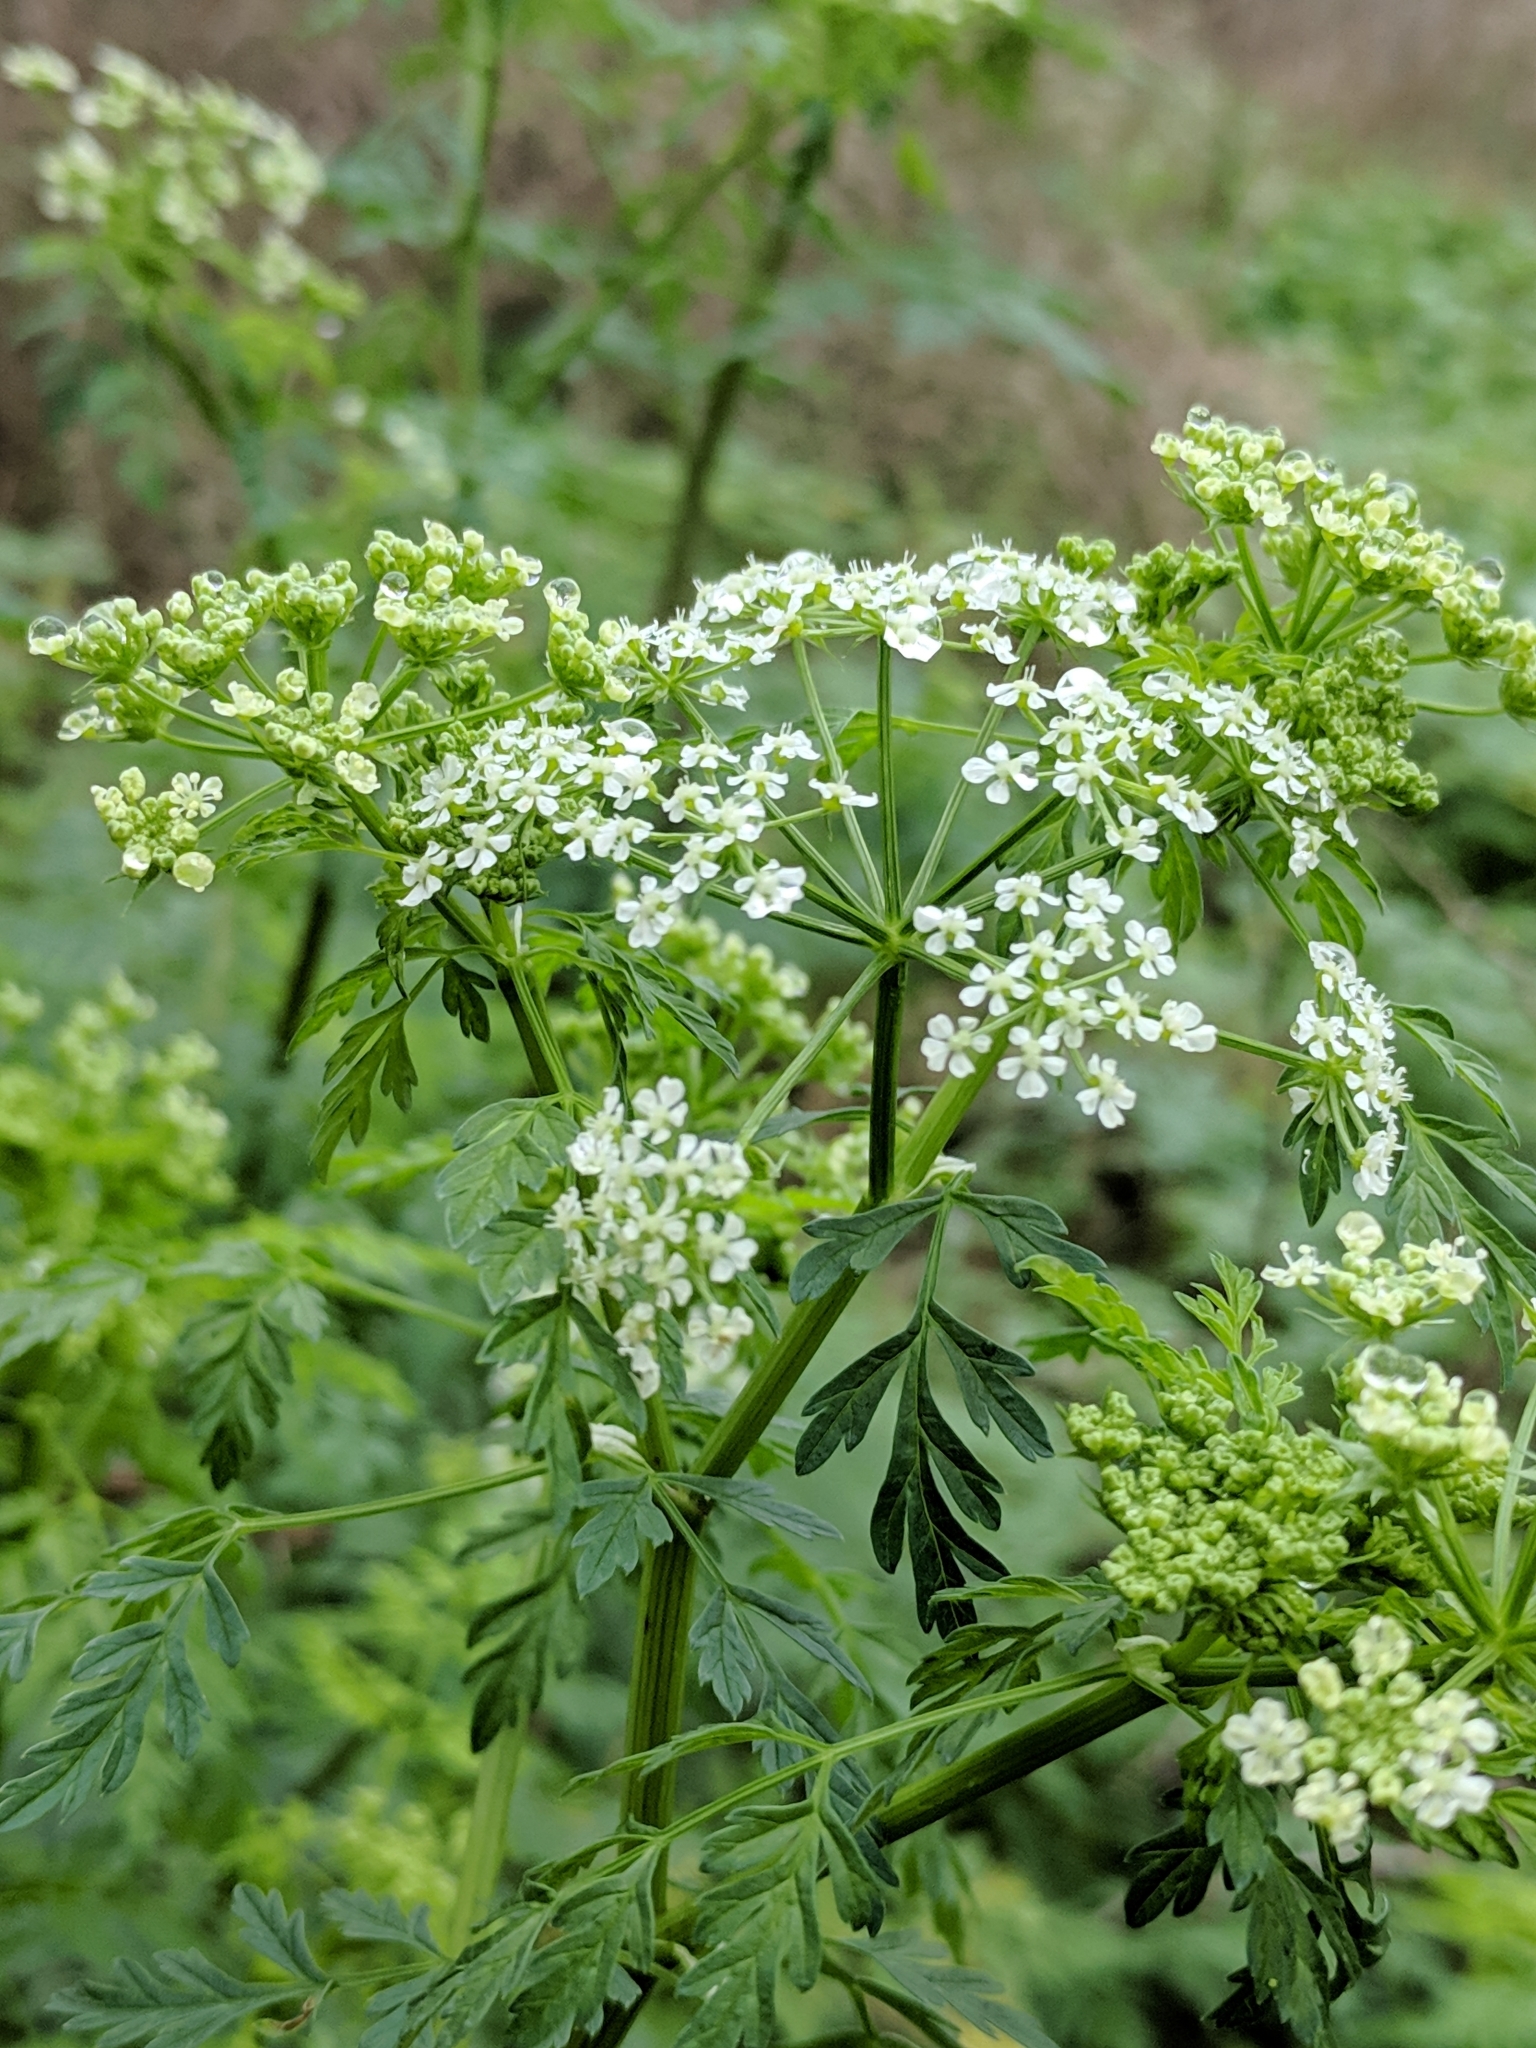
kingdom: Plantae
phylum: Tracheophyta
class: Magnoliopsida
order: Apiales
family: Apiaceae
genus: Conium
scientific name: Conium maculatum
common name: Hemlock
